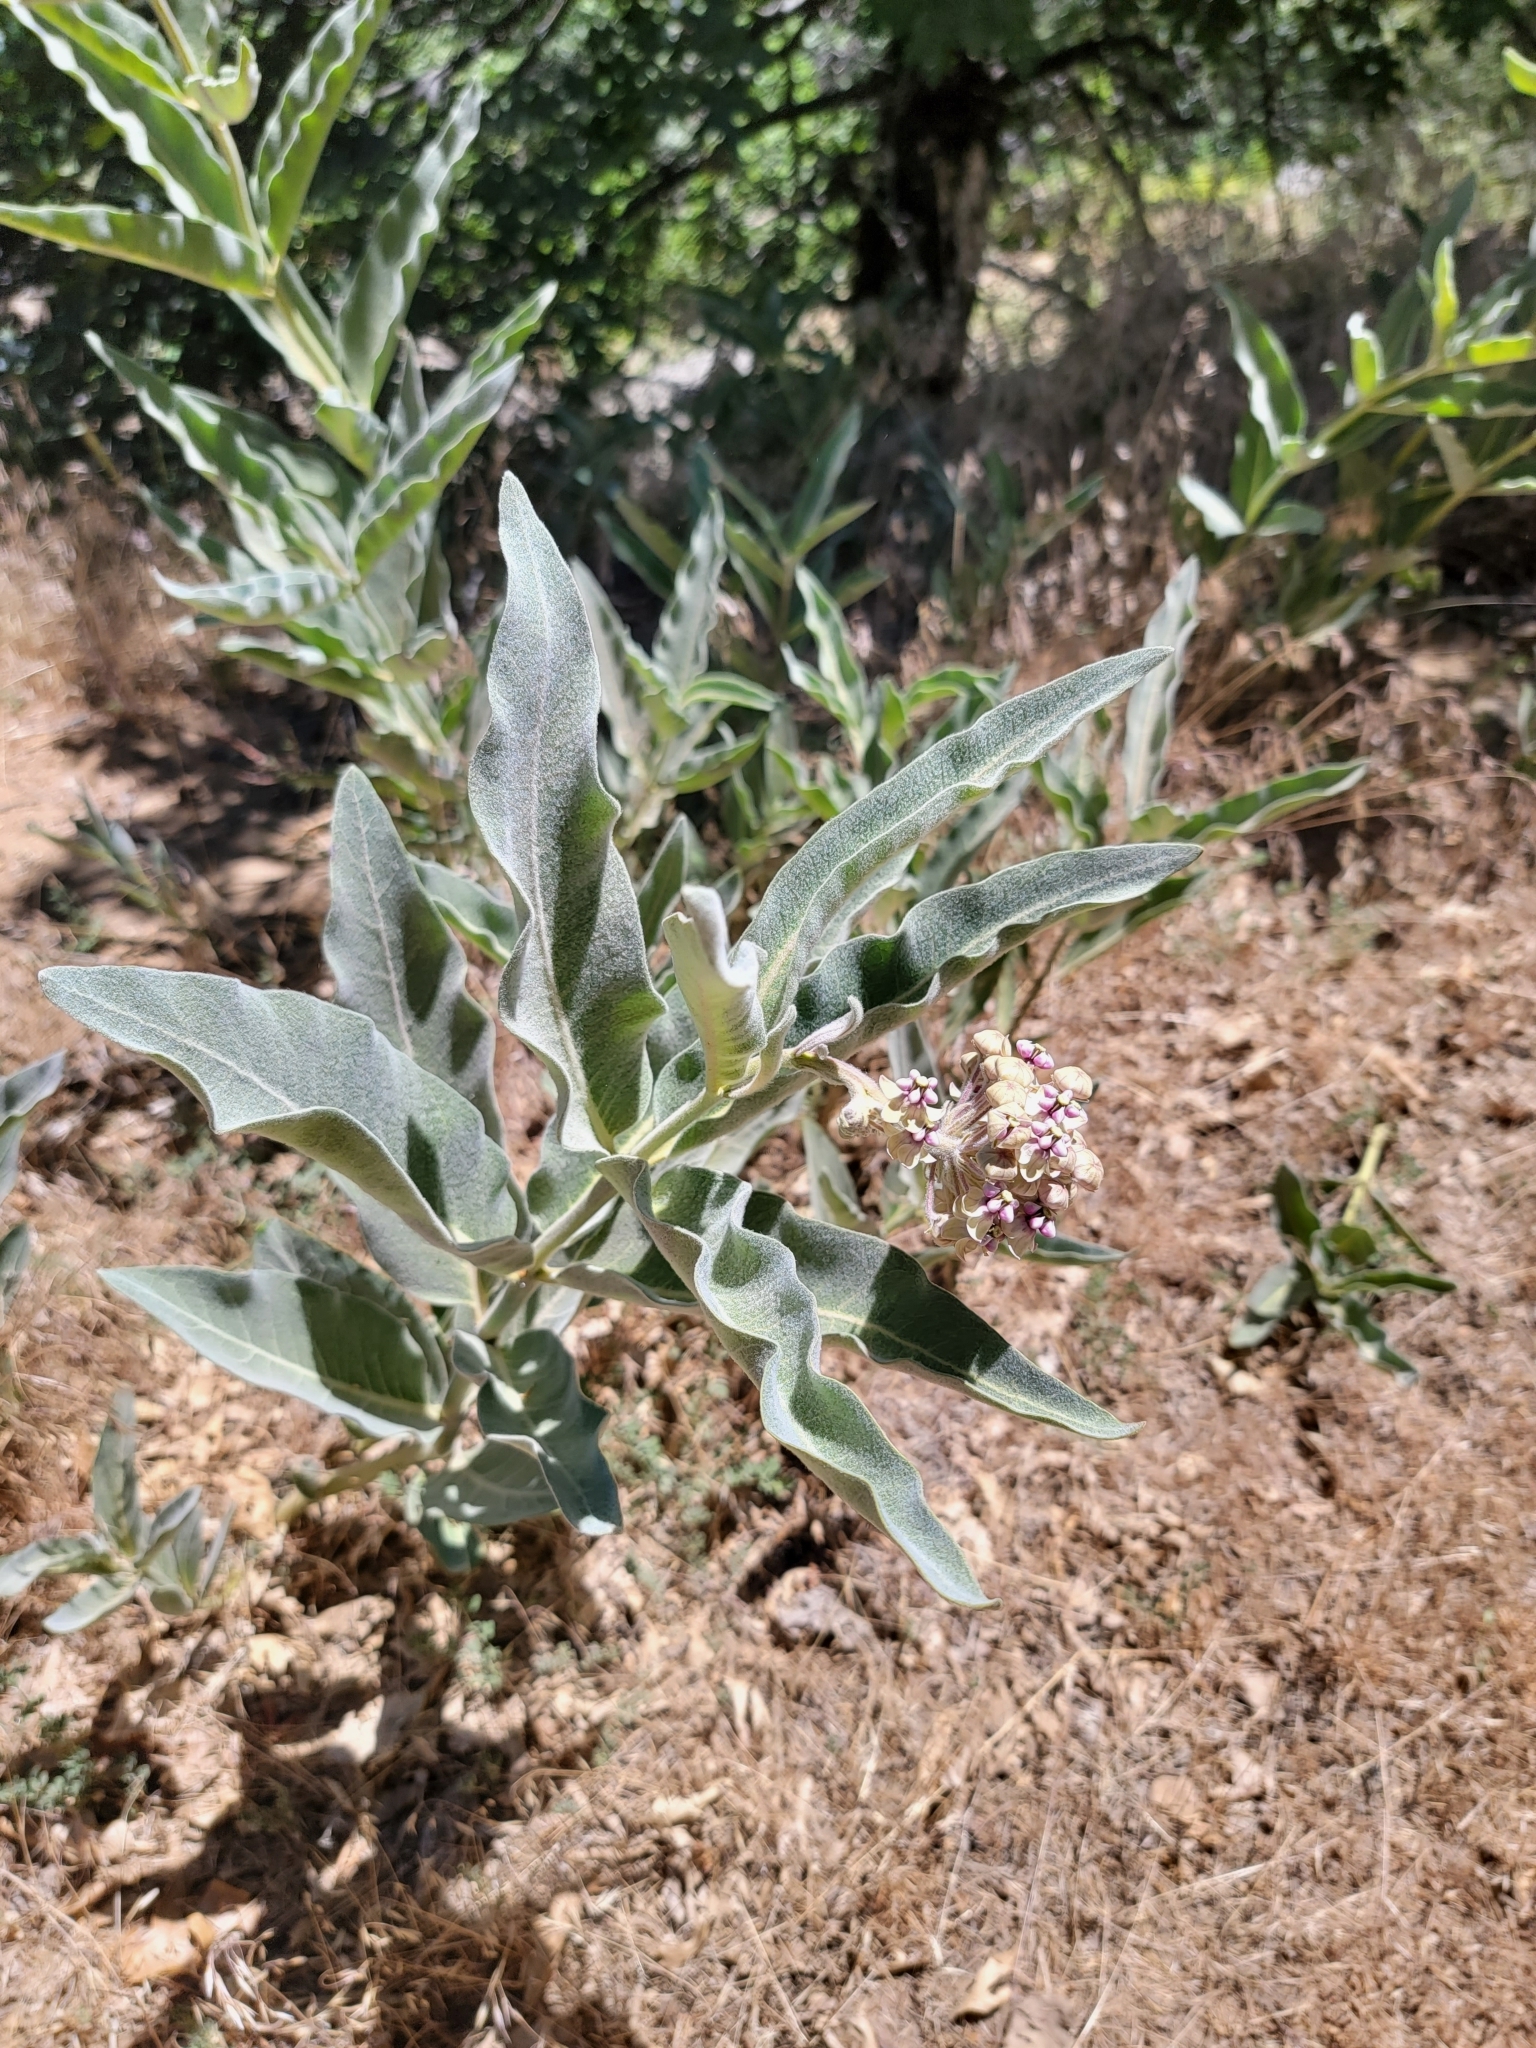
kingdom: Plantae
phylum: Tracheophyta
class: Magnoliopsida
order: Gentianales
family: Apocynaceae
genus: Asclepias
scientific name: Asclepias eriocarpa
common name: Indian milkweed
